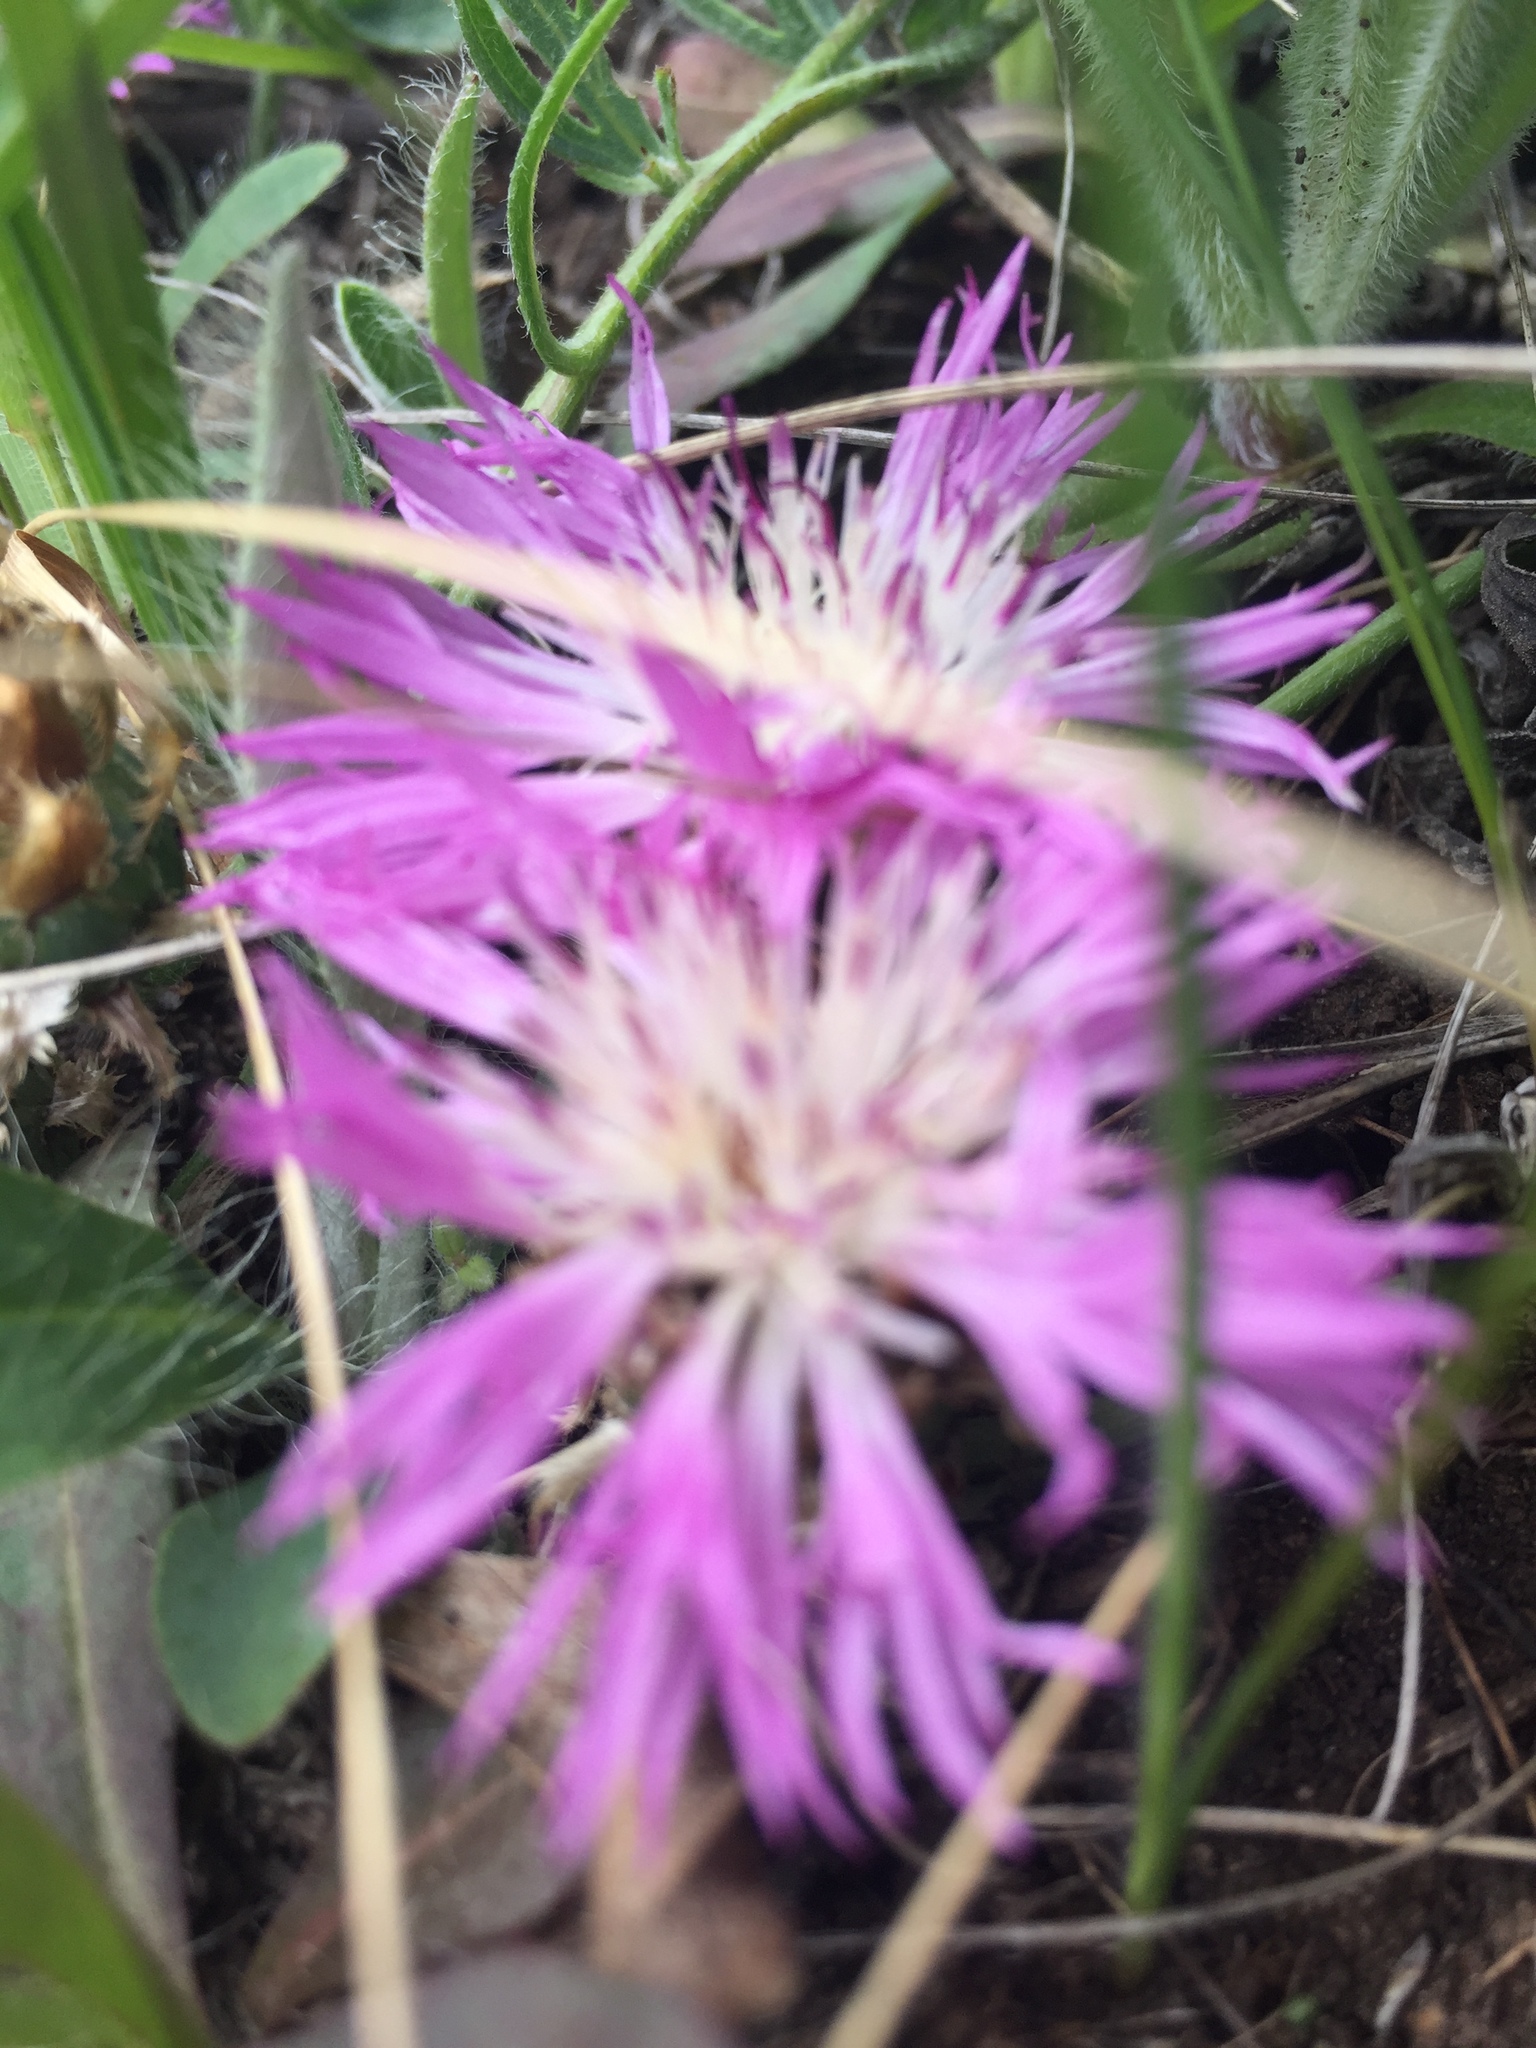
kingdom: Plantae
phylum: Tracheophyta
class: Magnoliopsida
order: Asterales
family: Asteraceae
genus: Psephellus
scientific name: Psephellus marschallianus
